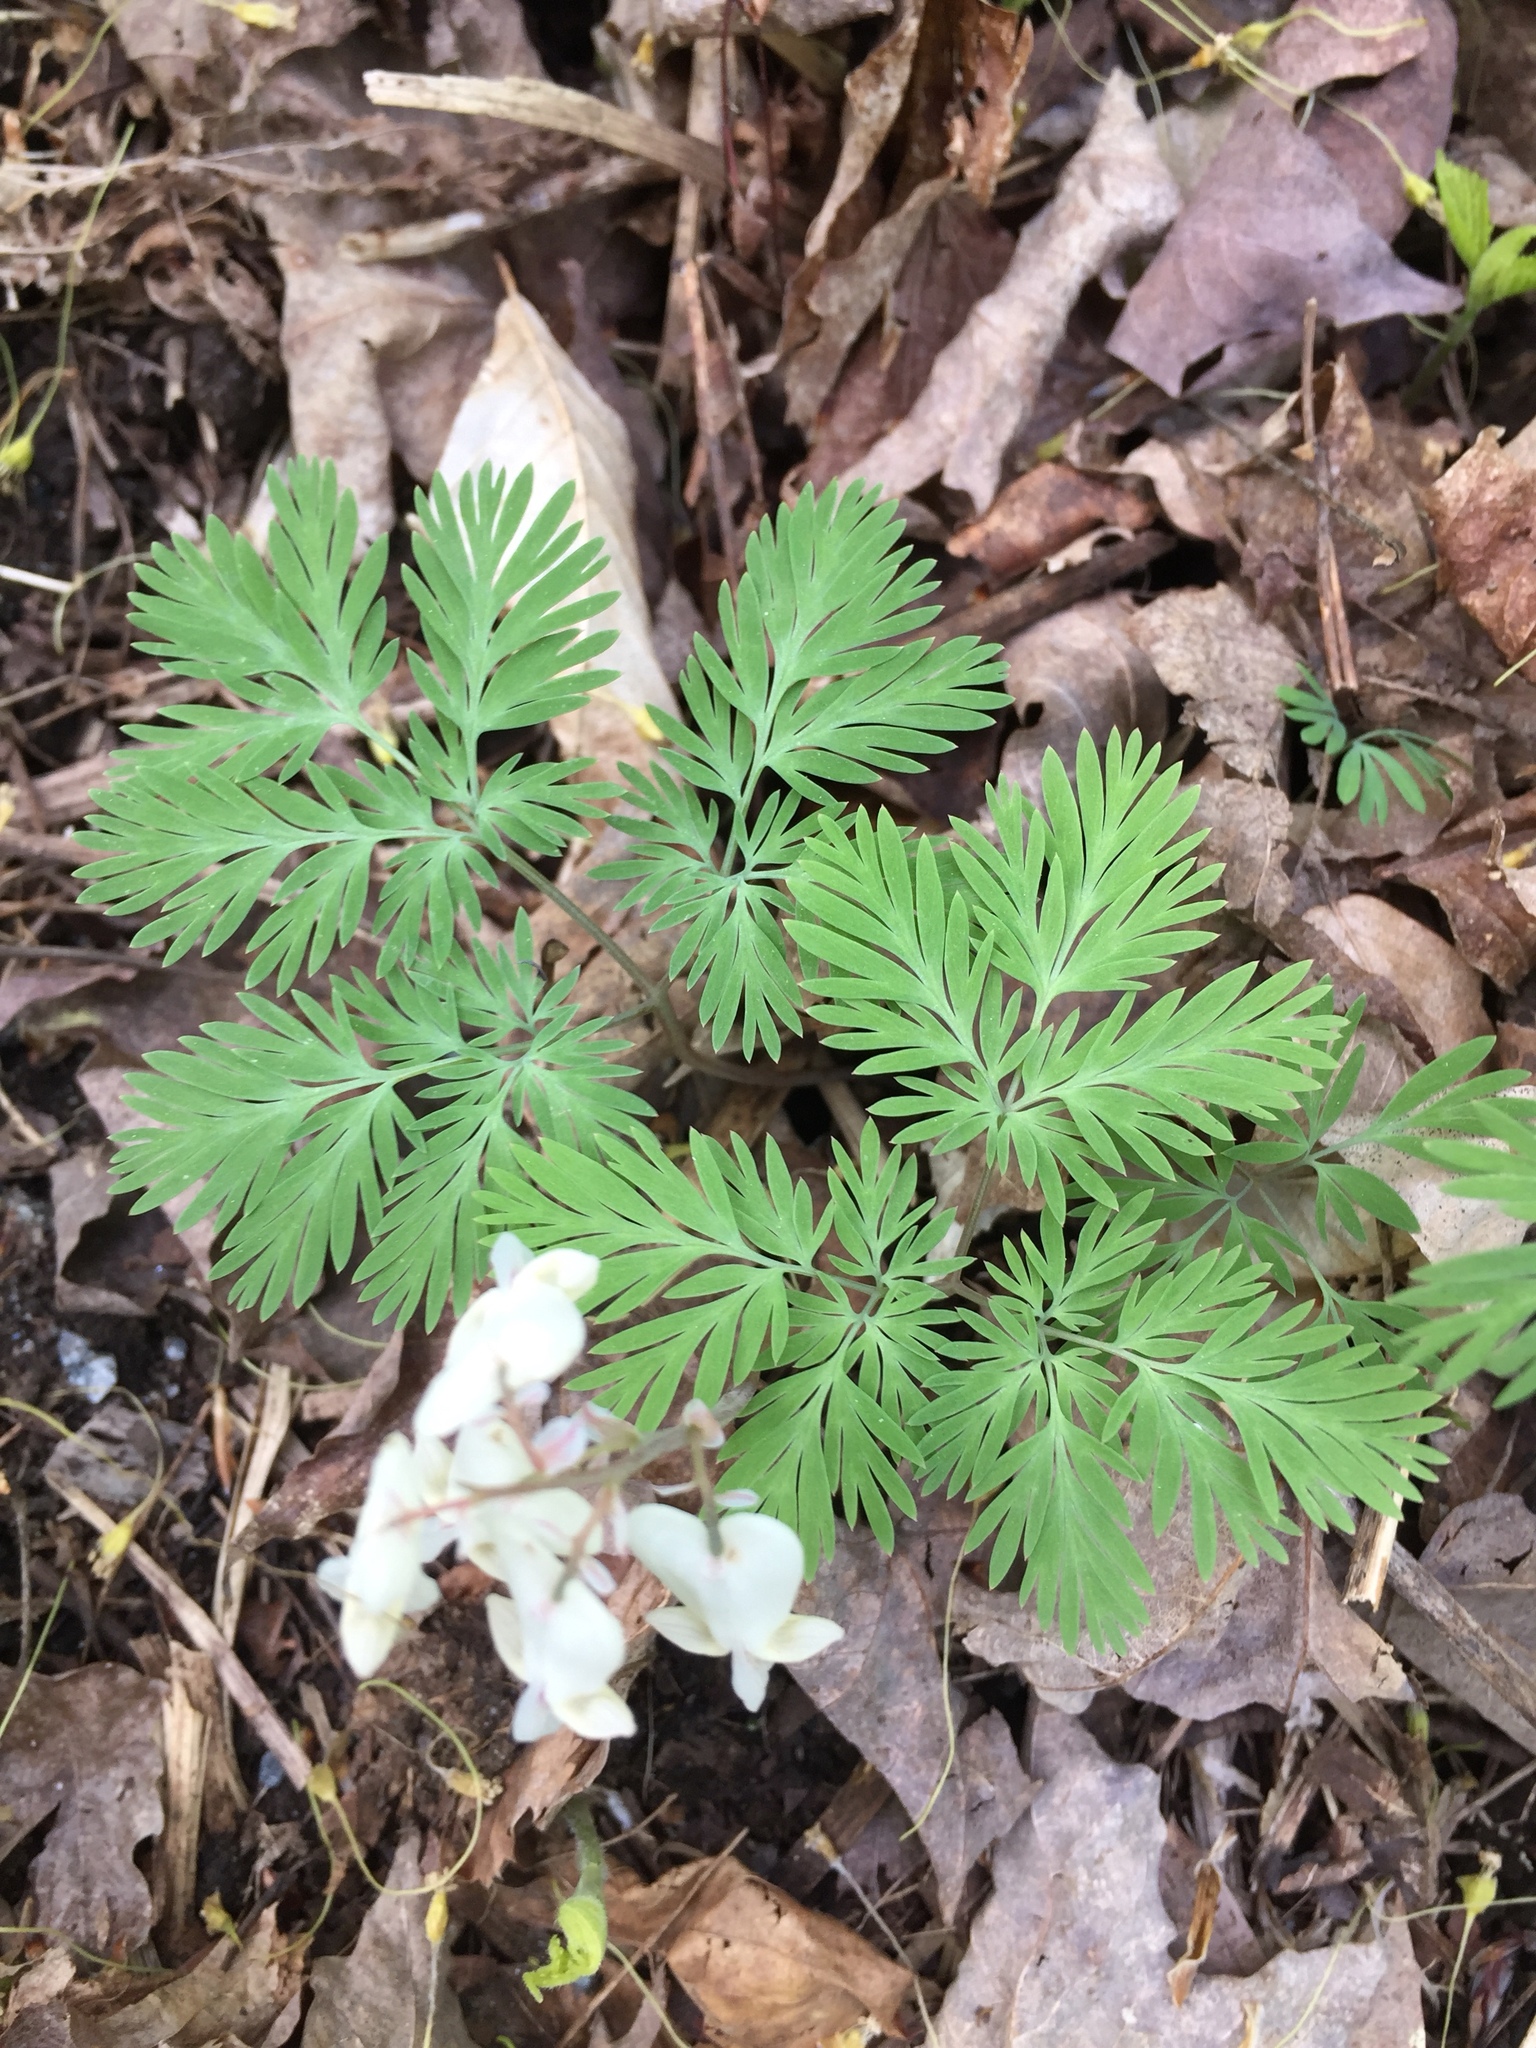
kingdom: Plantae
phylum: Tracheophyta
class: Magnoliopsida
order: Ranunculales
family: Papaveraceae
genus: Dicentra
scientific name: Dicentra canadensis
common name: Squirrel-corn
